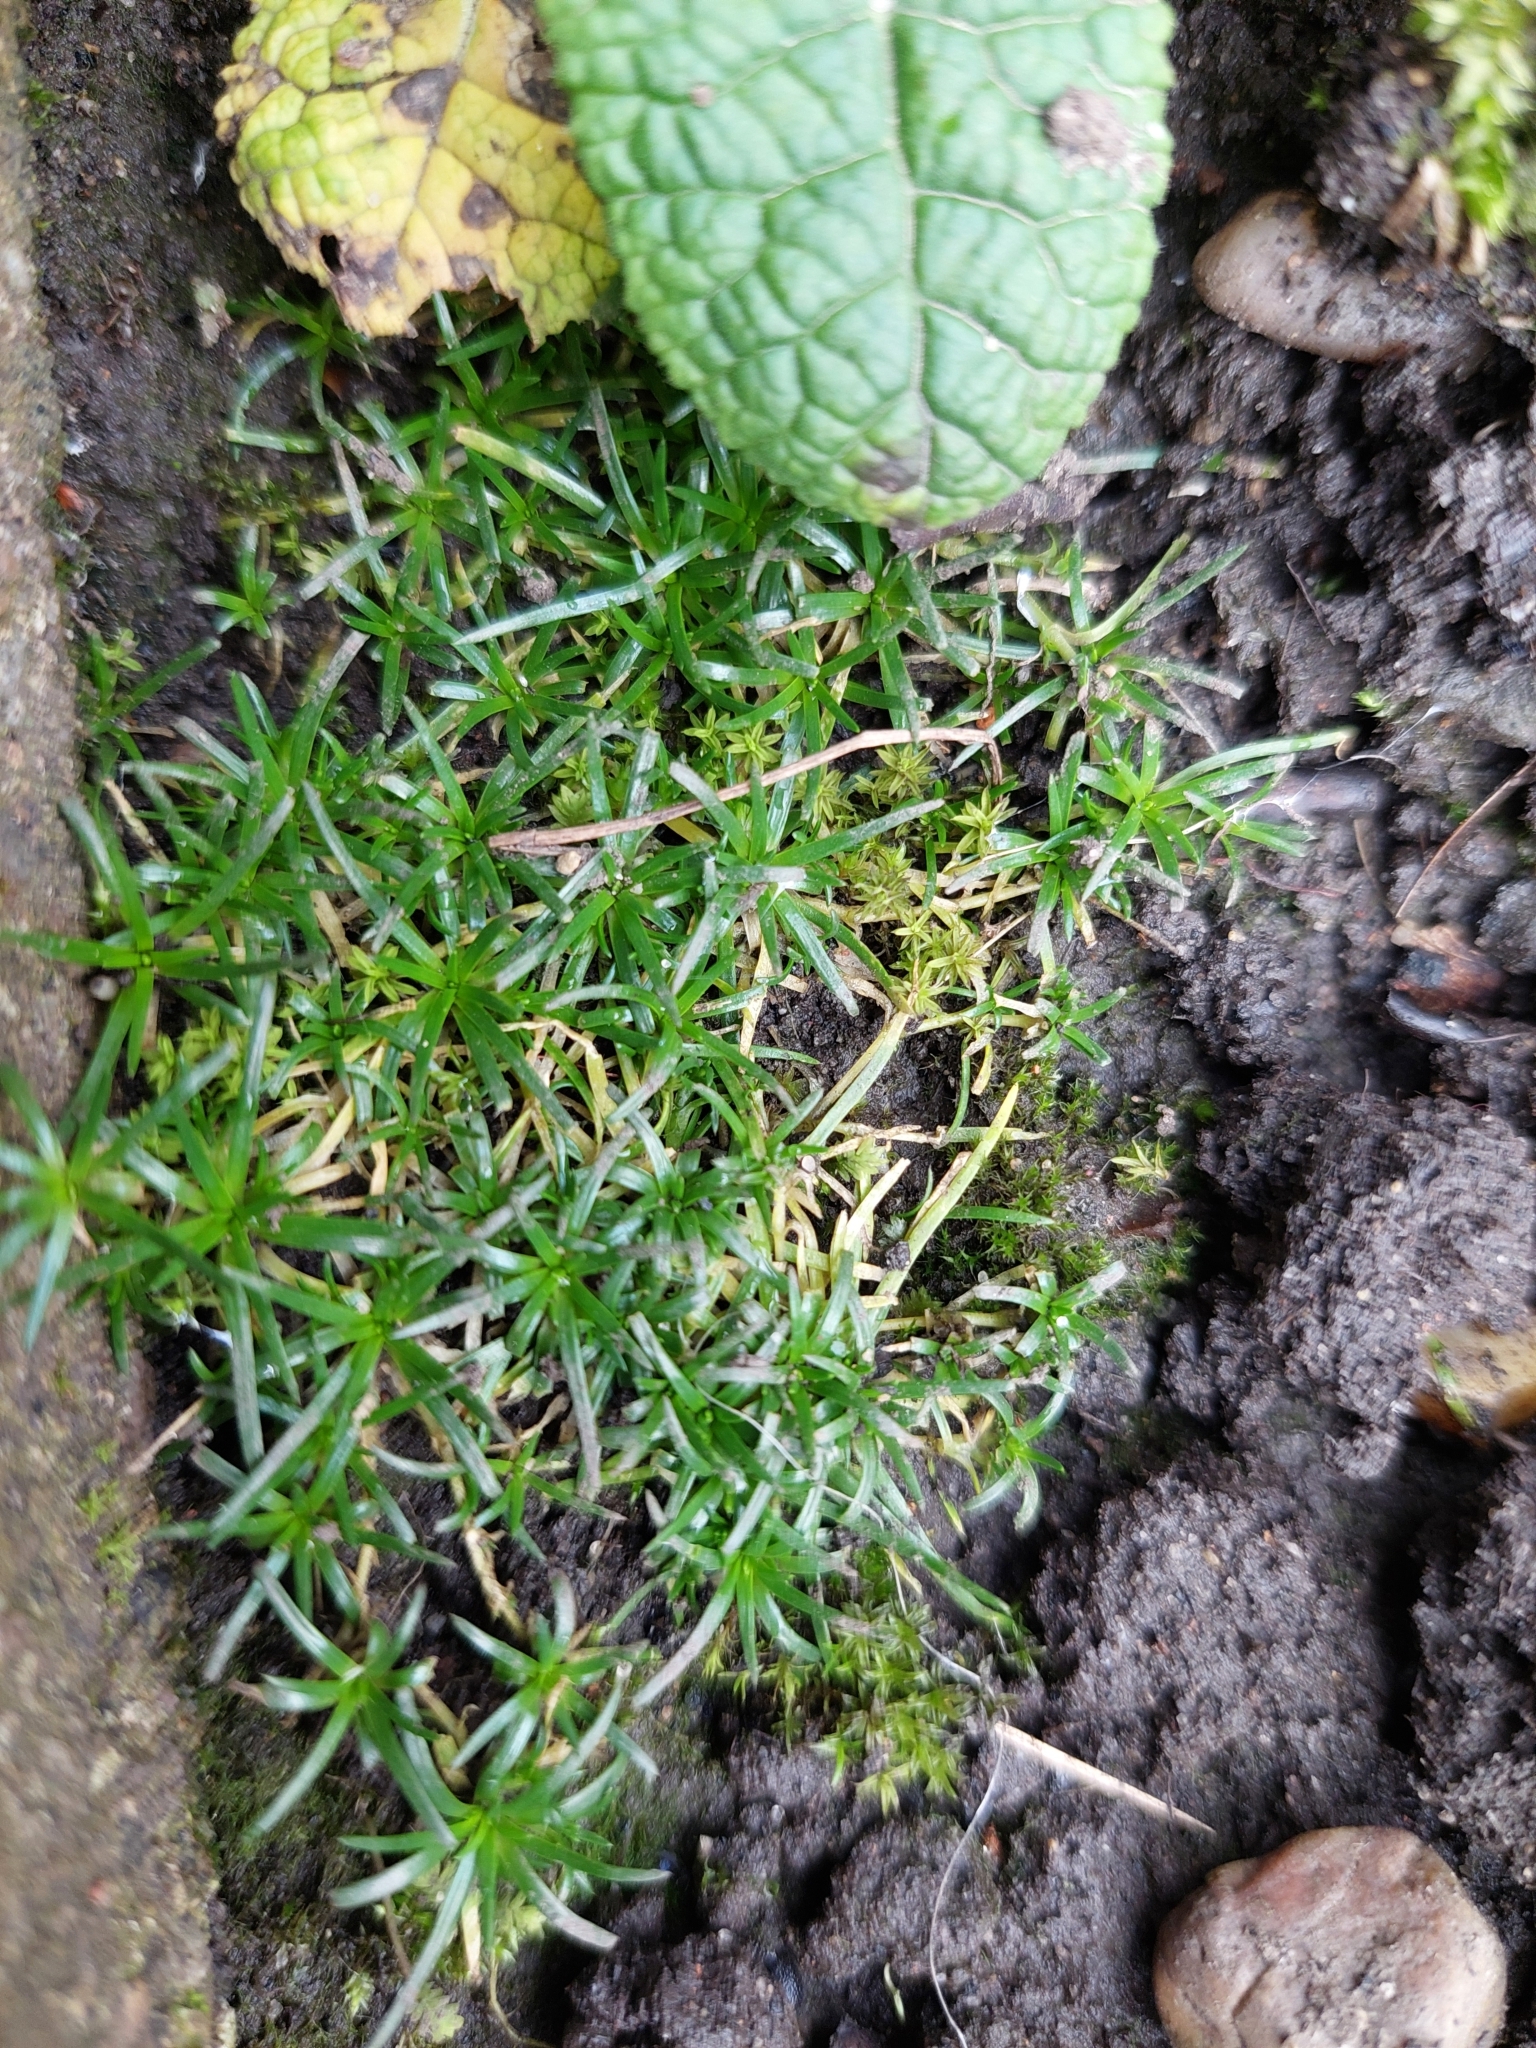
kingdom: Plantae
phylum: Tracheophyta
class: Magnoliopsida
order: Caryophyllales
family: Caryophyllaceae
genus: Sagina
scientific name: Sagina procumbens
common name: Procumbent pearlwort
